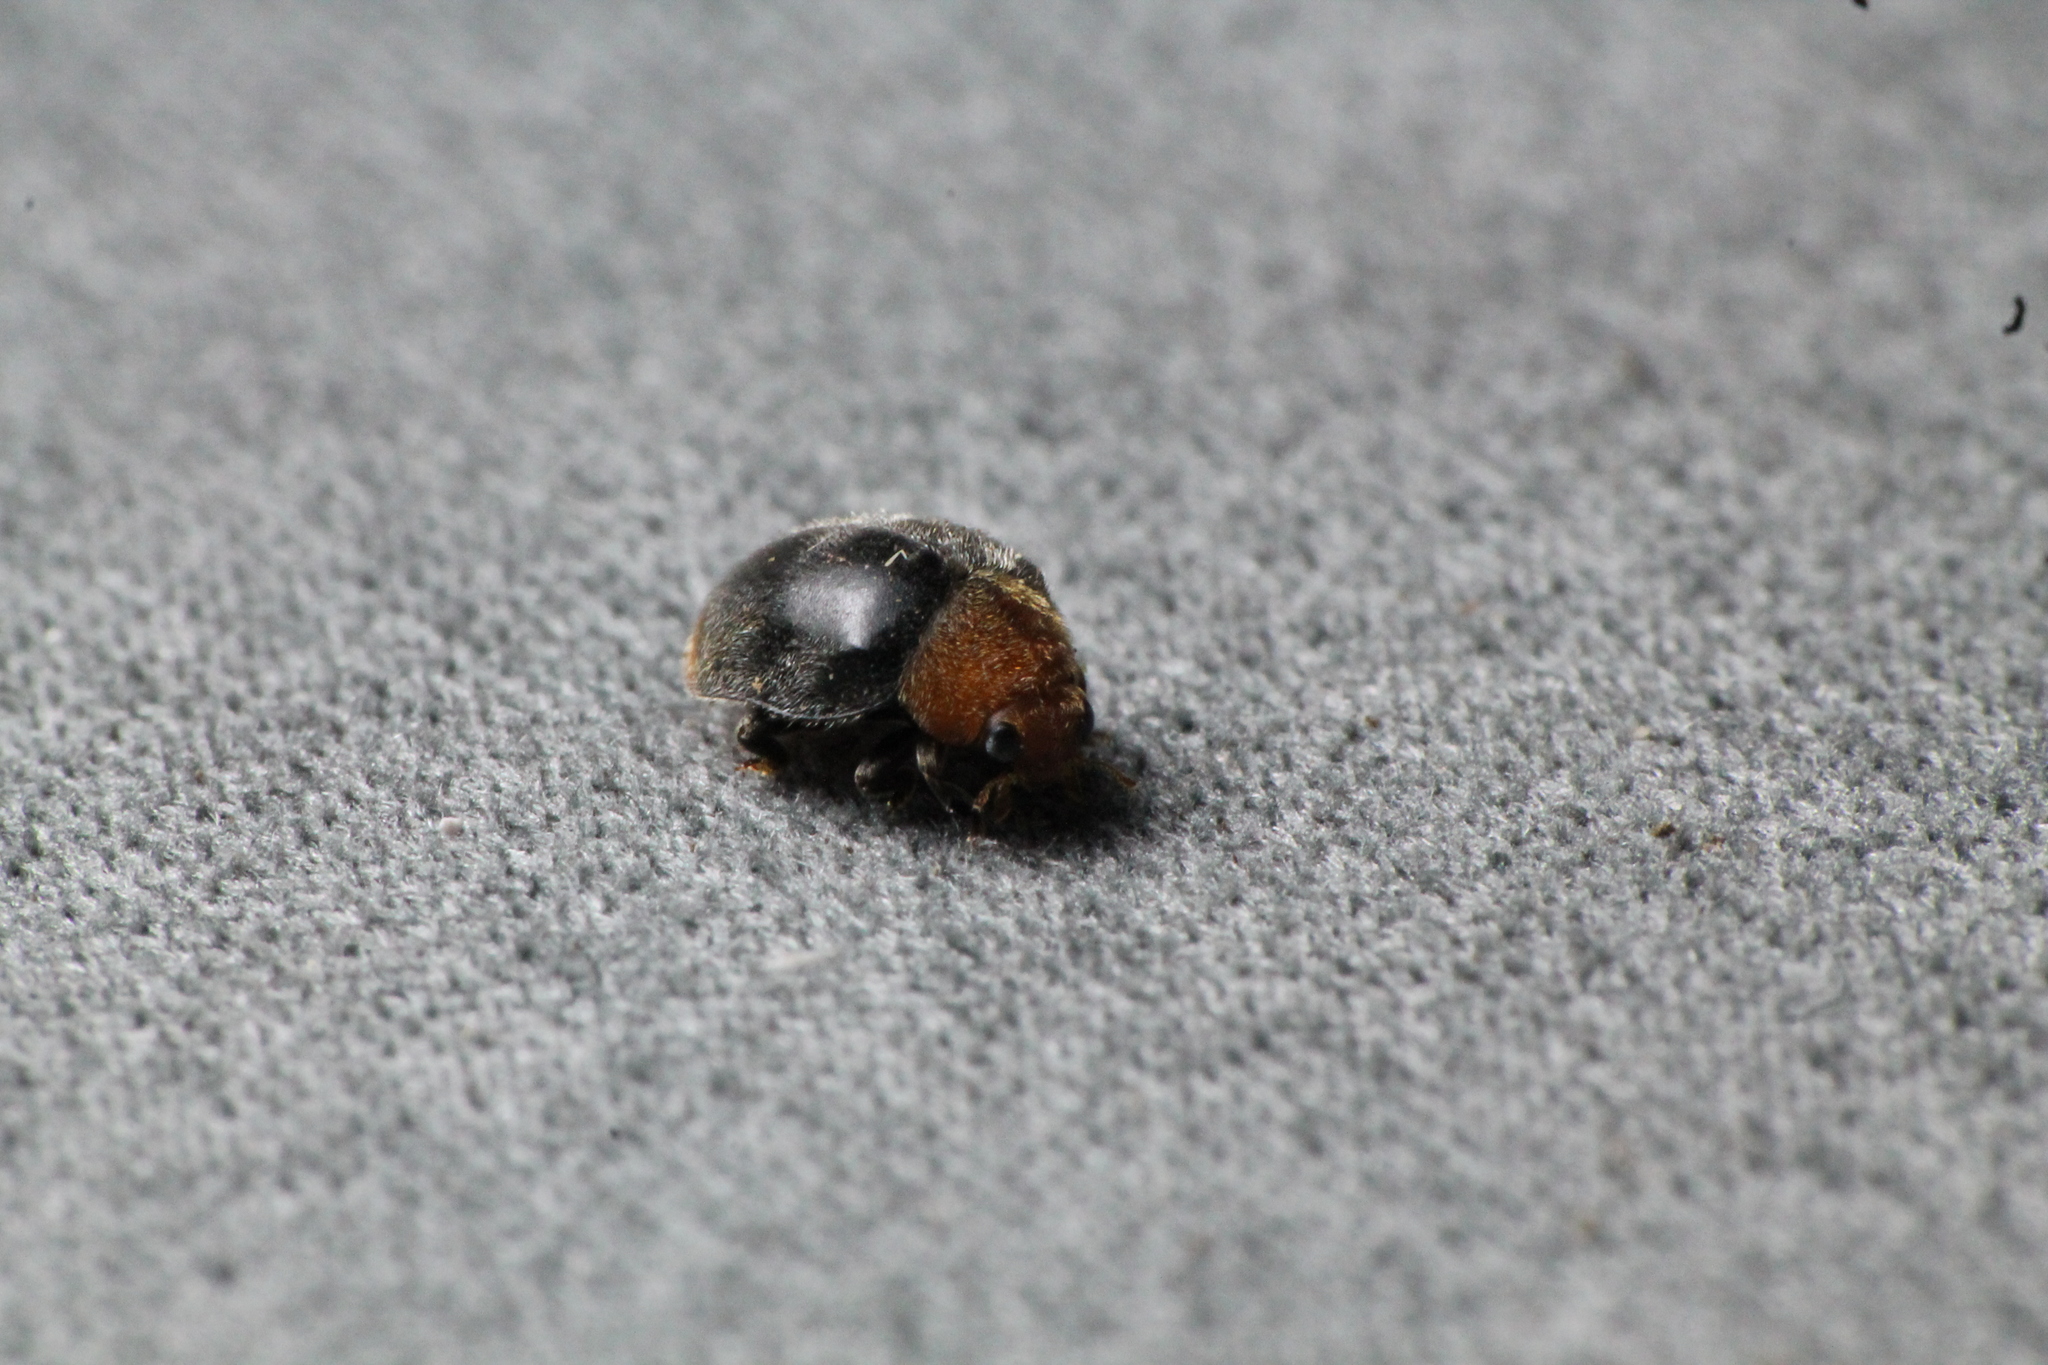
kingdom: Animalia
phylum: Arthropoda
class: Insecta
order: Coleoptera
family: Coccinellidae
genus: Cryptolaemus
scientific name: Cryptolaemus montrouzieri
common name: Mealybug destroyer
